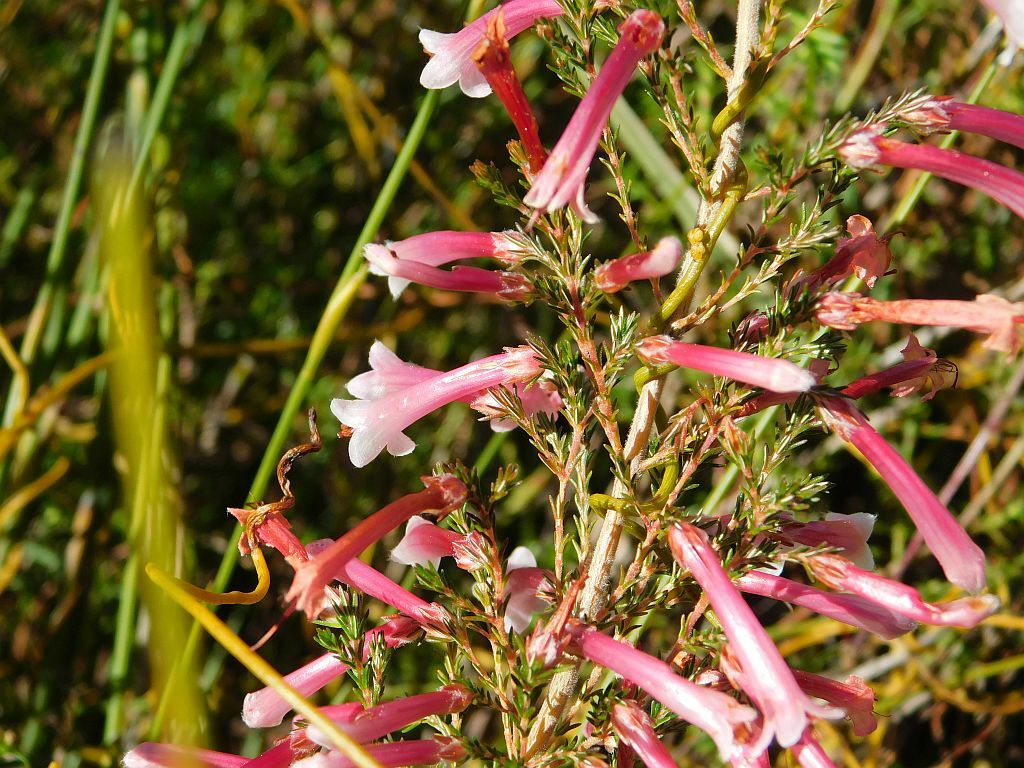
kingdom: Plantae
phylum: Tracheophyta
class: Magnoliopsida
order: Ericales
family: Ericaceae
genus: Erica
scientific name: Erica versicolor
